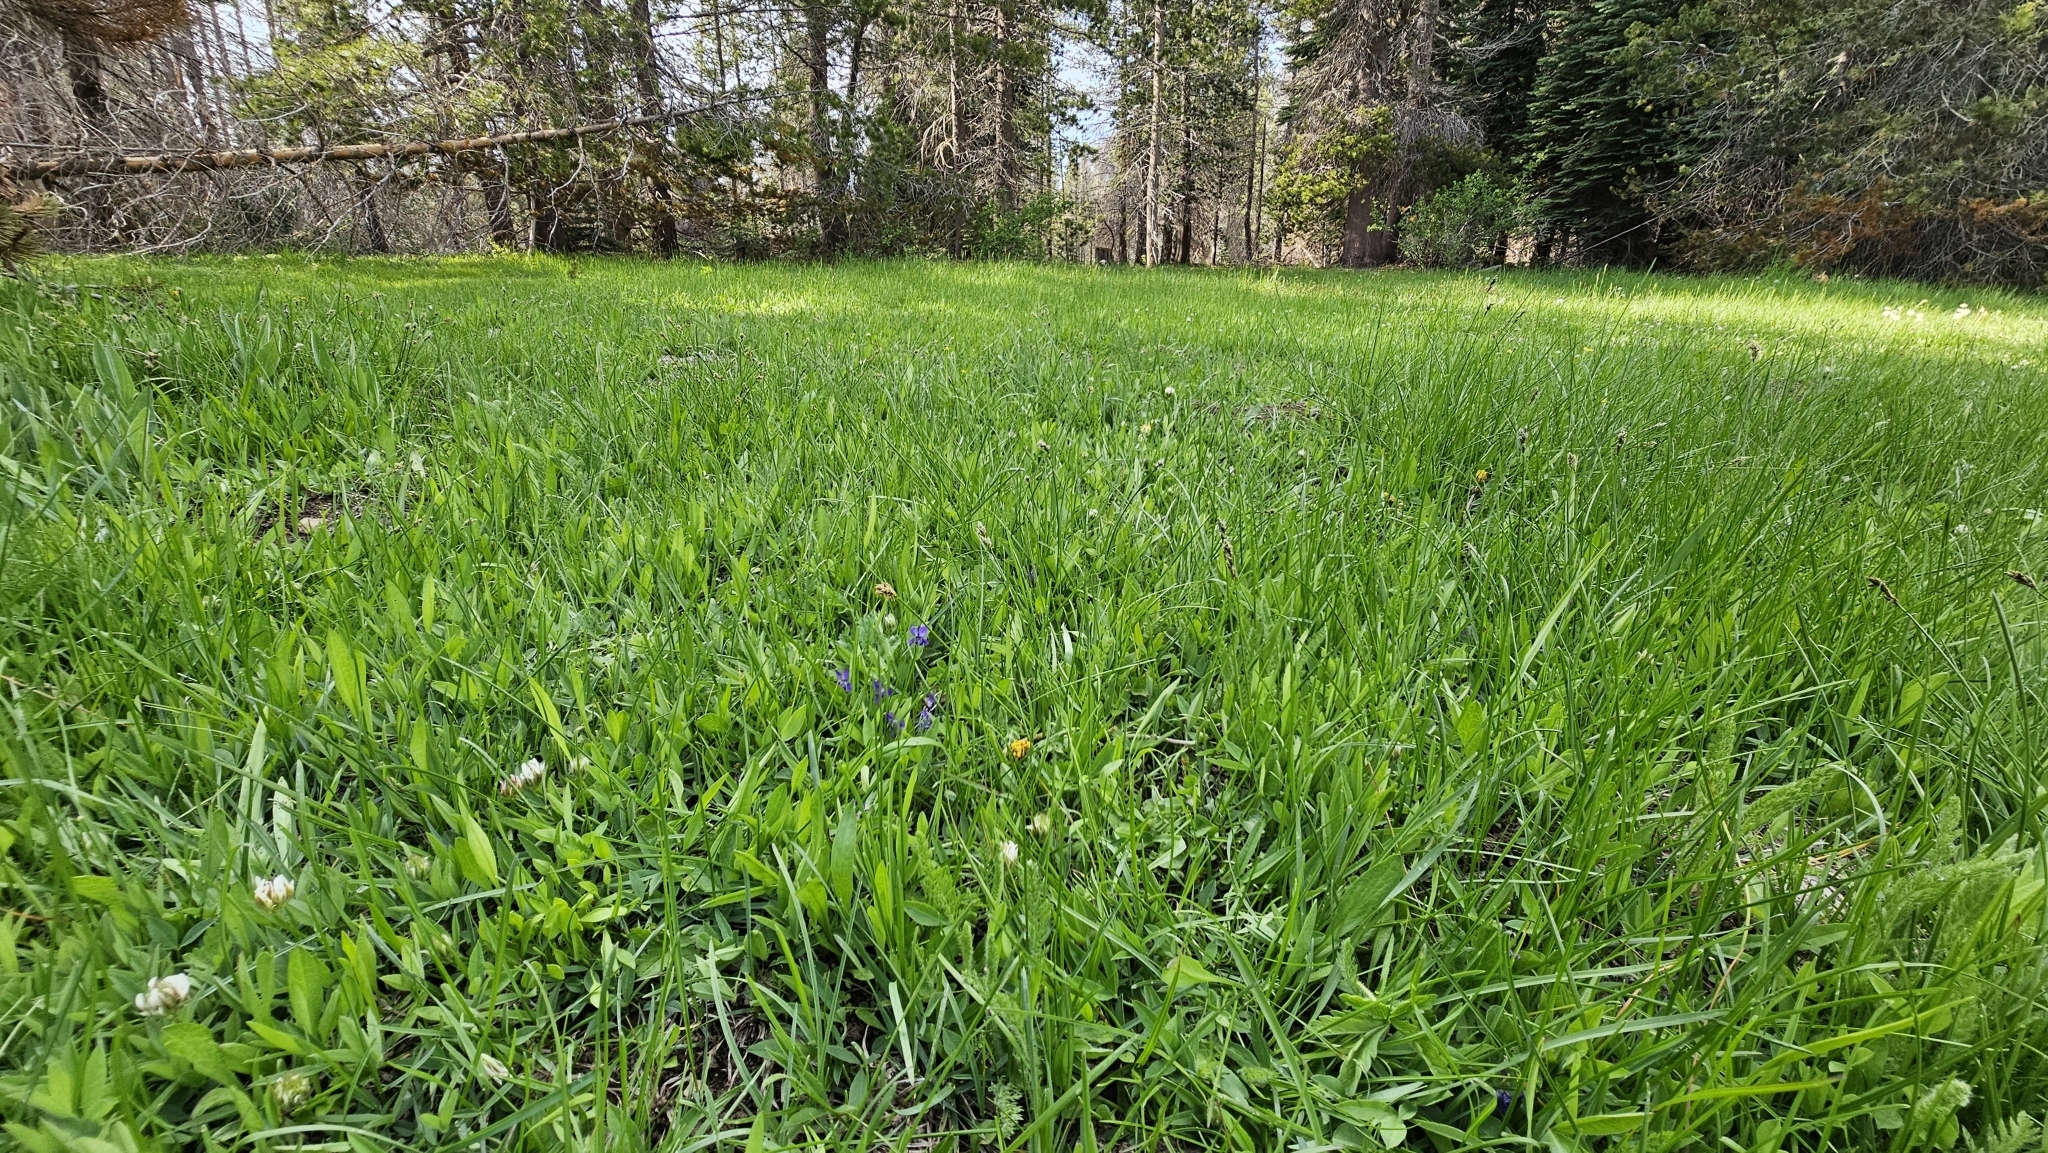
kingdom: Plantae
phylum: Tracheophyta
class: Magnoliopsida
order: Malpighiales
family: Violaceae
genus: Viola
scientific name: Viola adunca
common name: Sand violet
